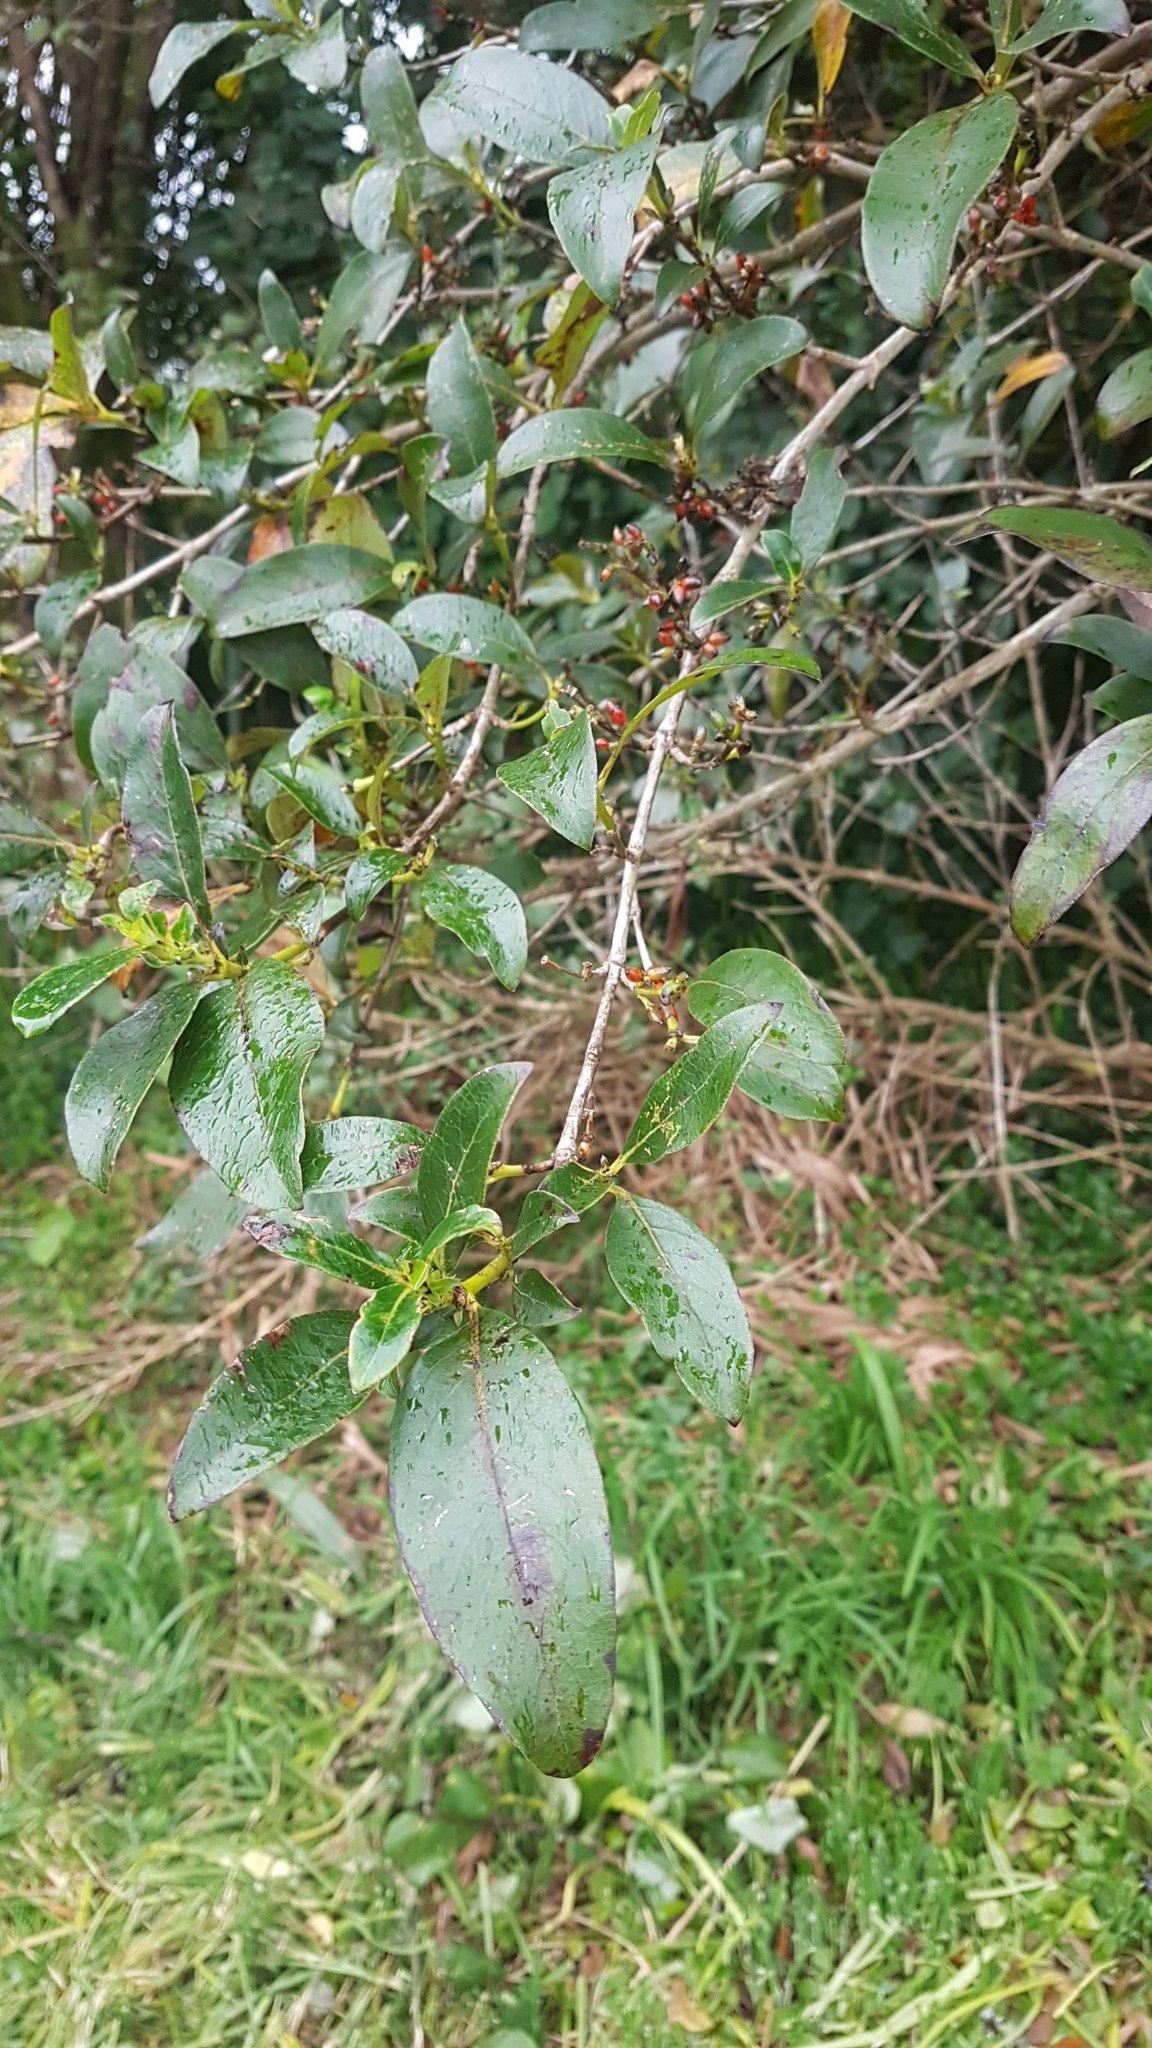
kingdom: Plantae
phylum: Tracheophyta
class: Magnoliopsida
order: Gentianales
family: Rubiaceae
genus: Coprosma
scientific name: Coprosma robusta
